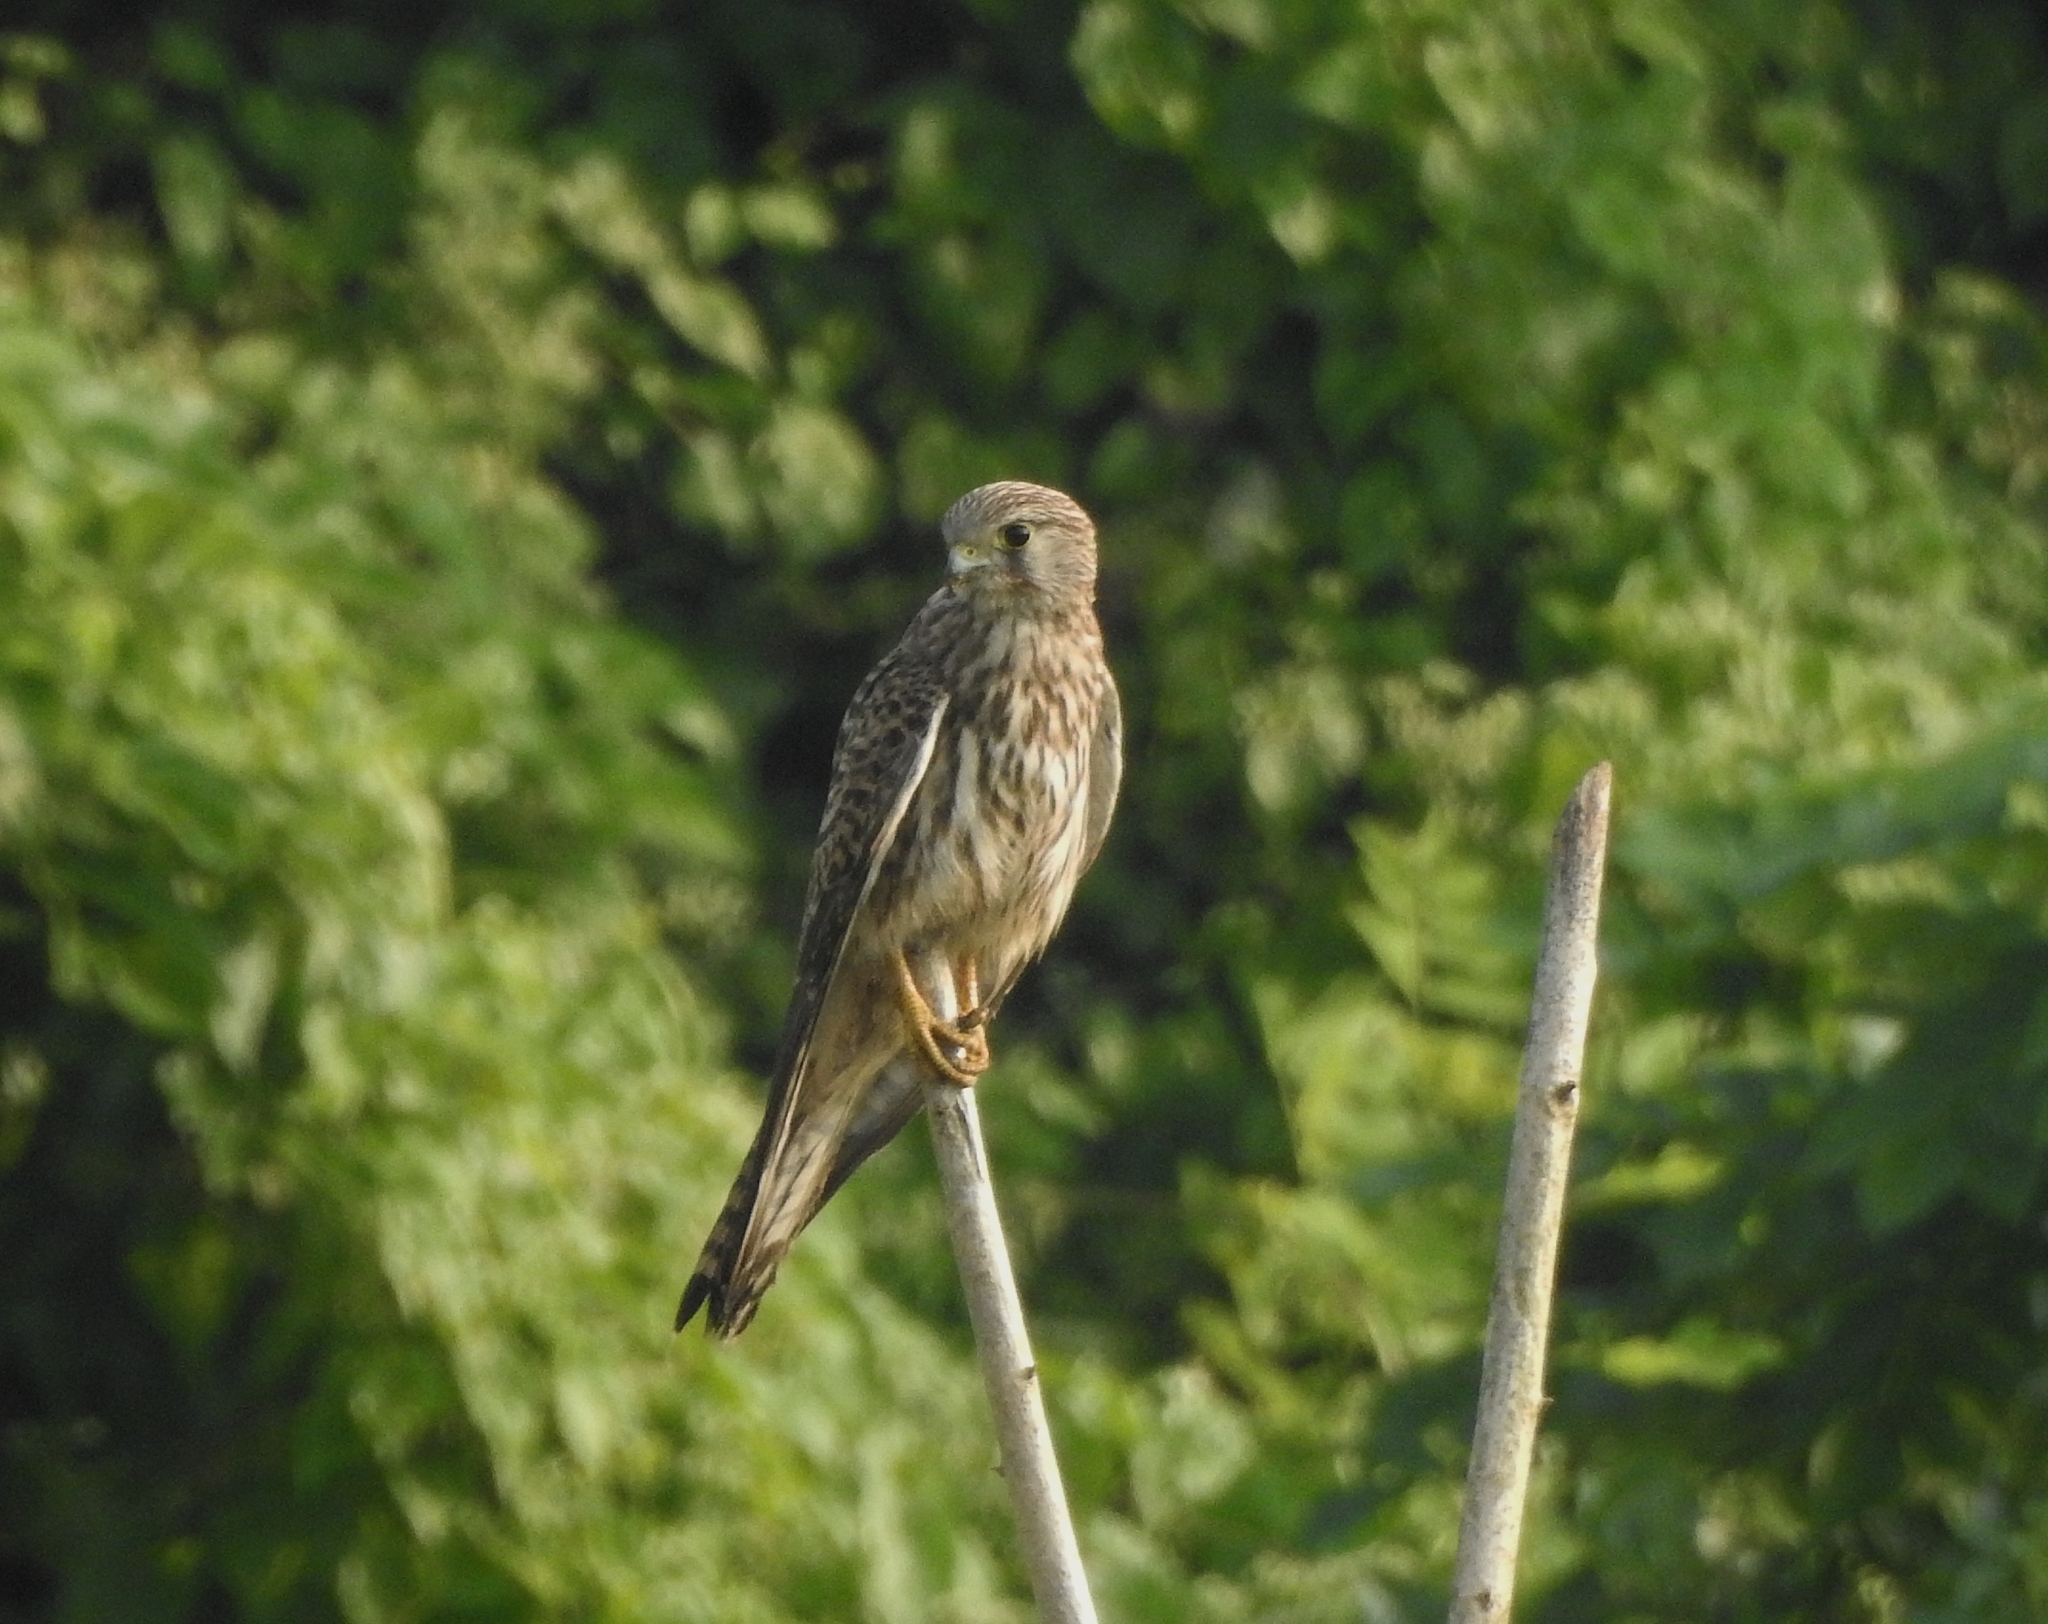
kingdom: Animalia
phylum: Chordata
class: Aves
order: Falconiformes
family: Falconidae
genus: Falco
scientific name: Falco tinnunculus
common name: Common kestrel
